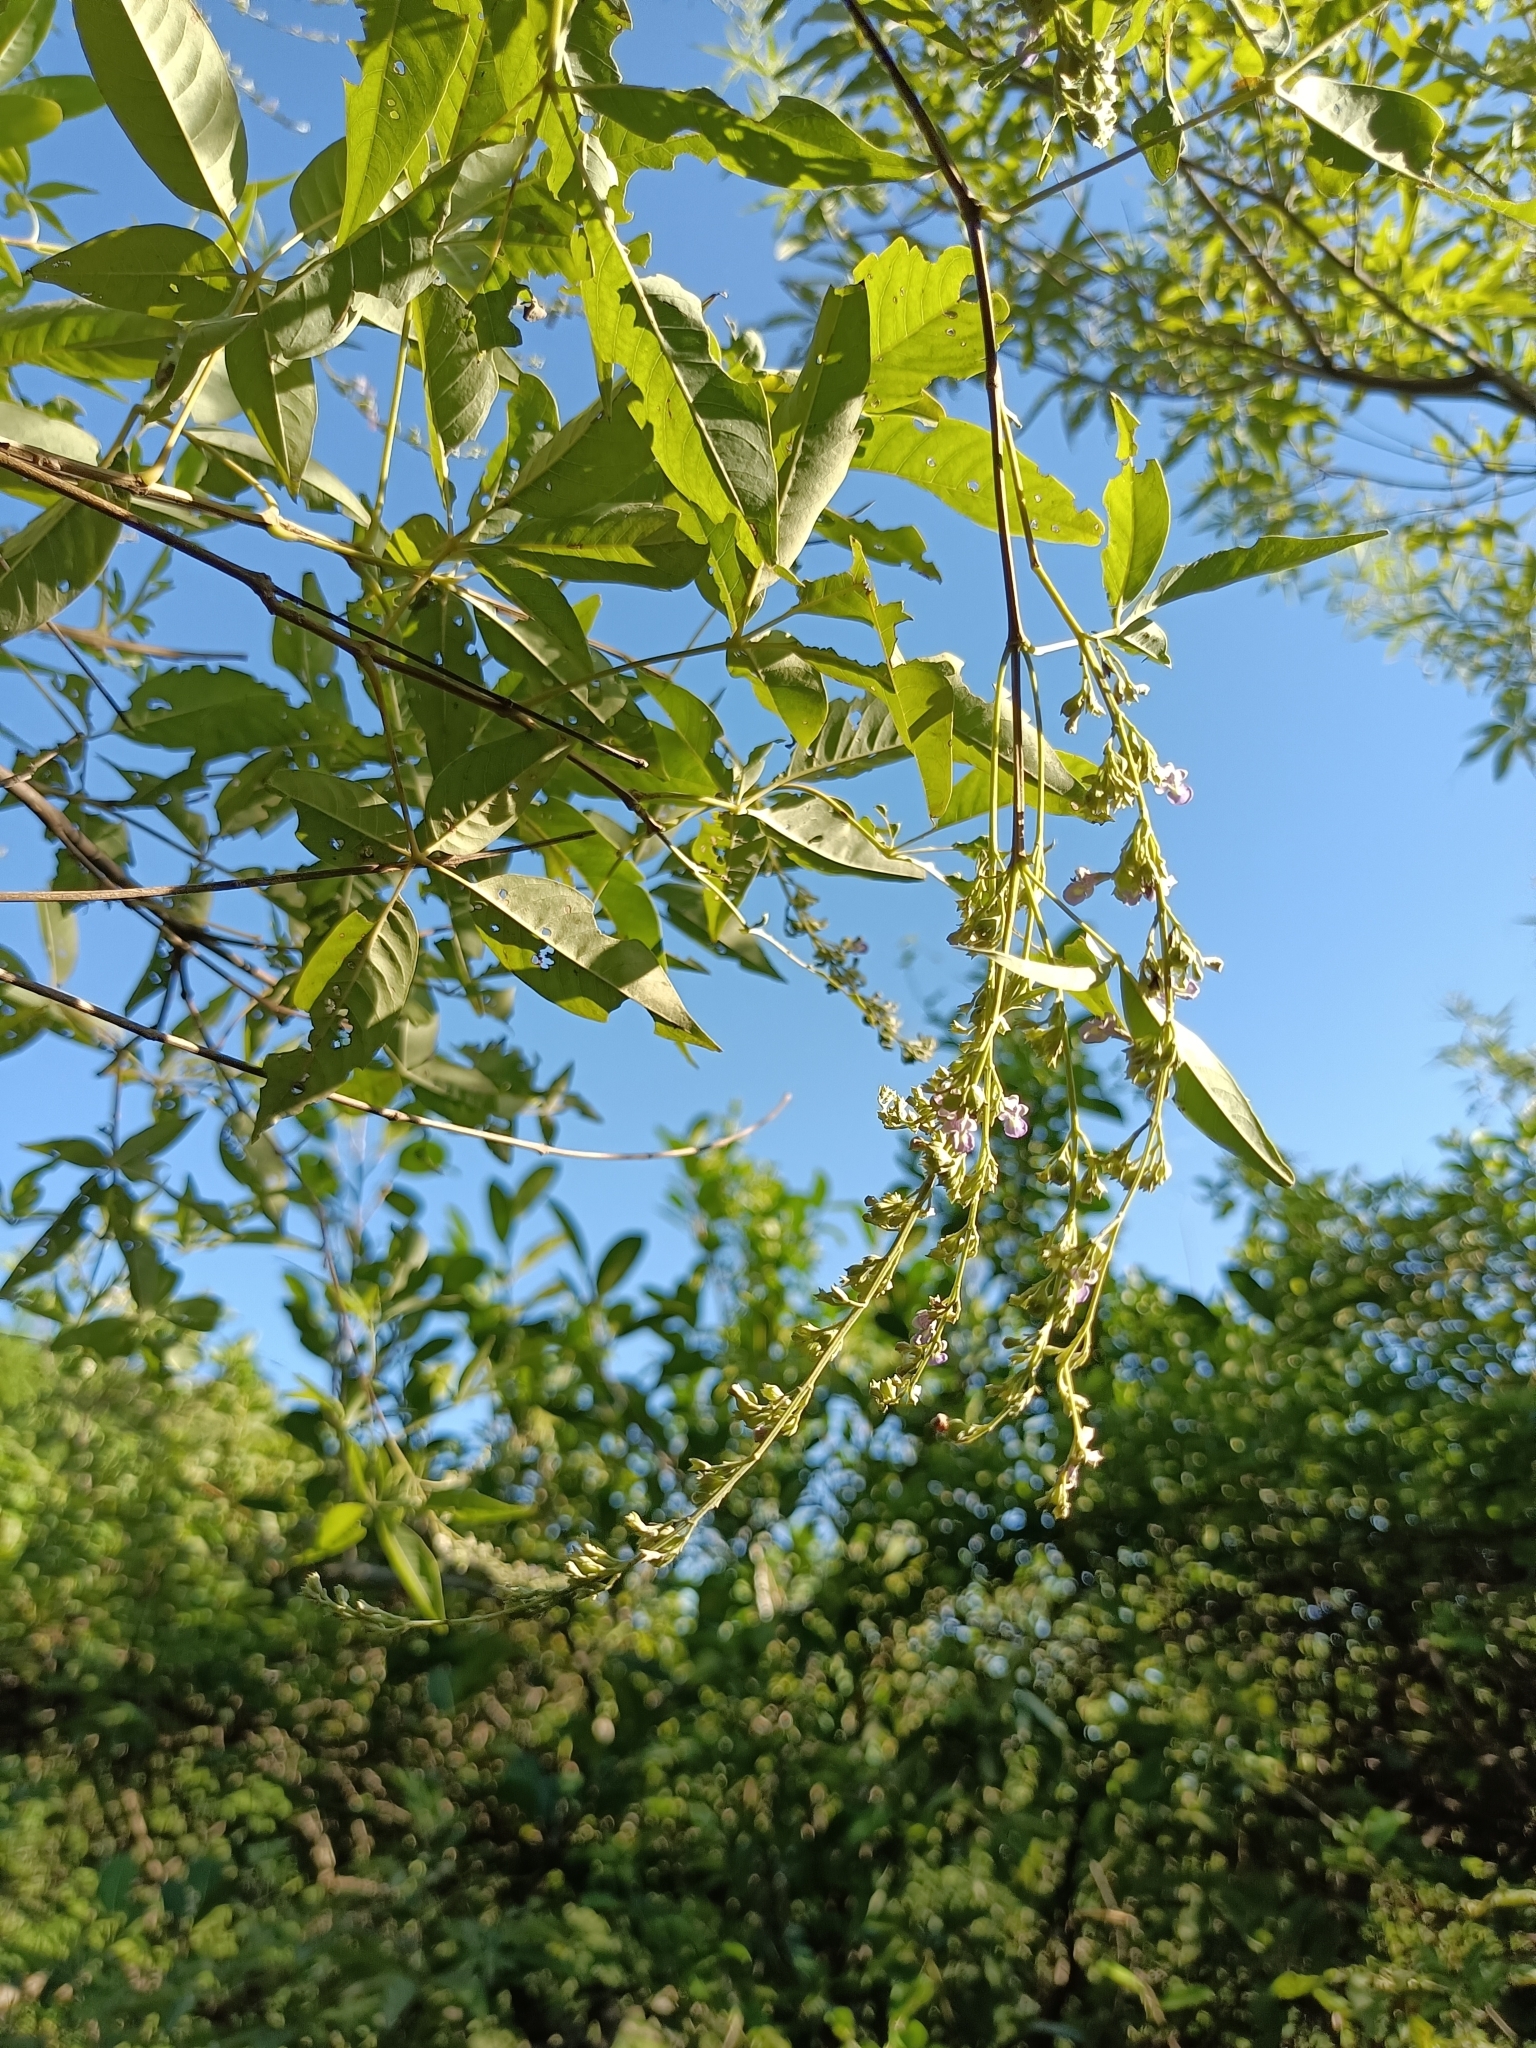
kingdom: Plantae
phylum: Tracheophyta
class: Magnoliopsida
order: Lamiales
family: Lamiaceae
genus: Vitex
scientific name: Vitex negundo
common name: Chinese chastetree
